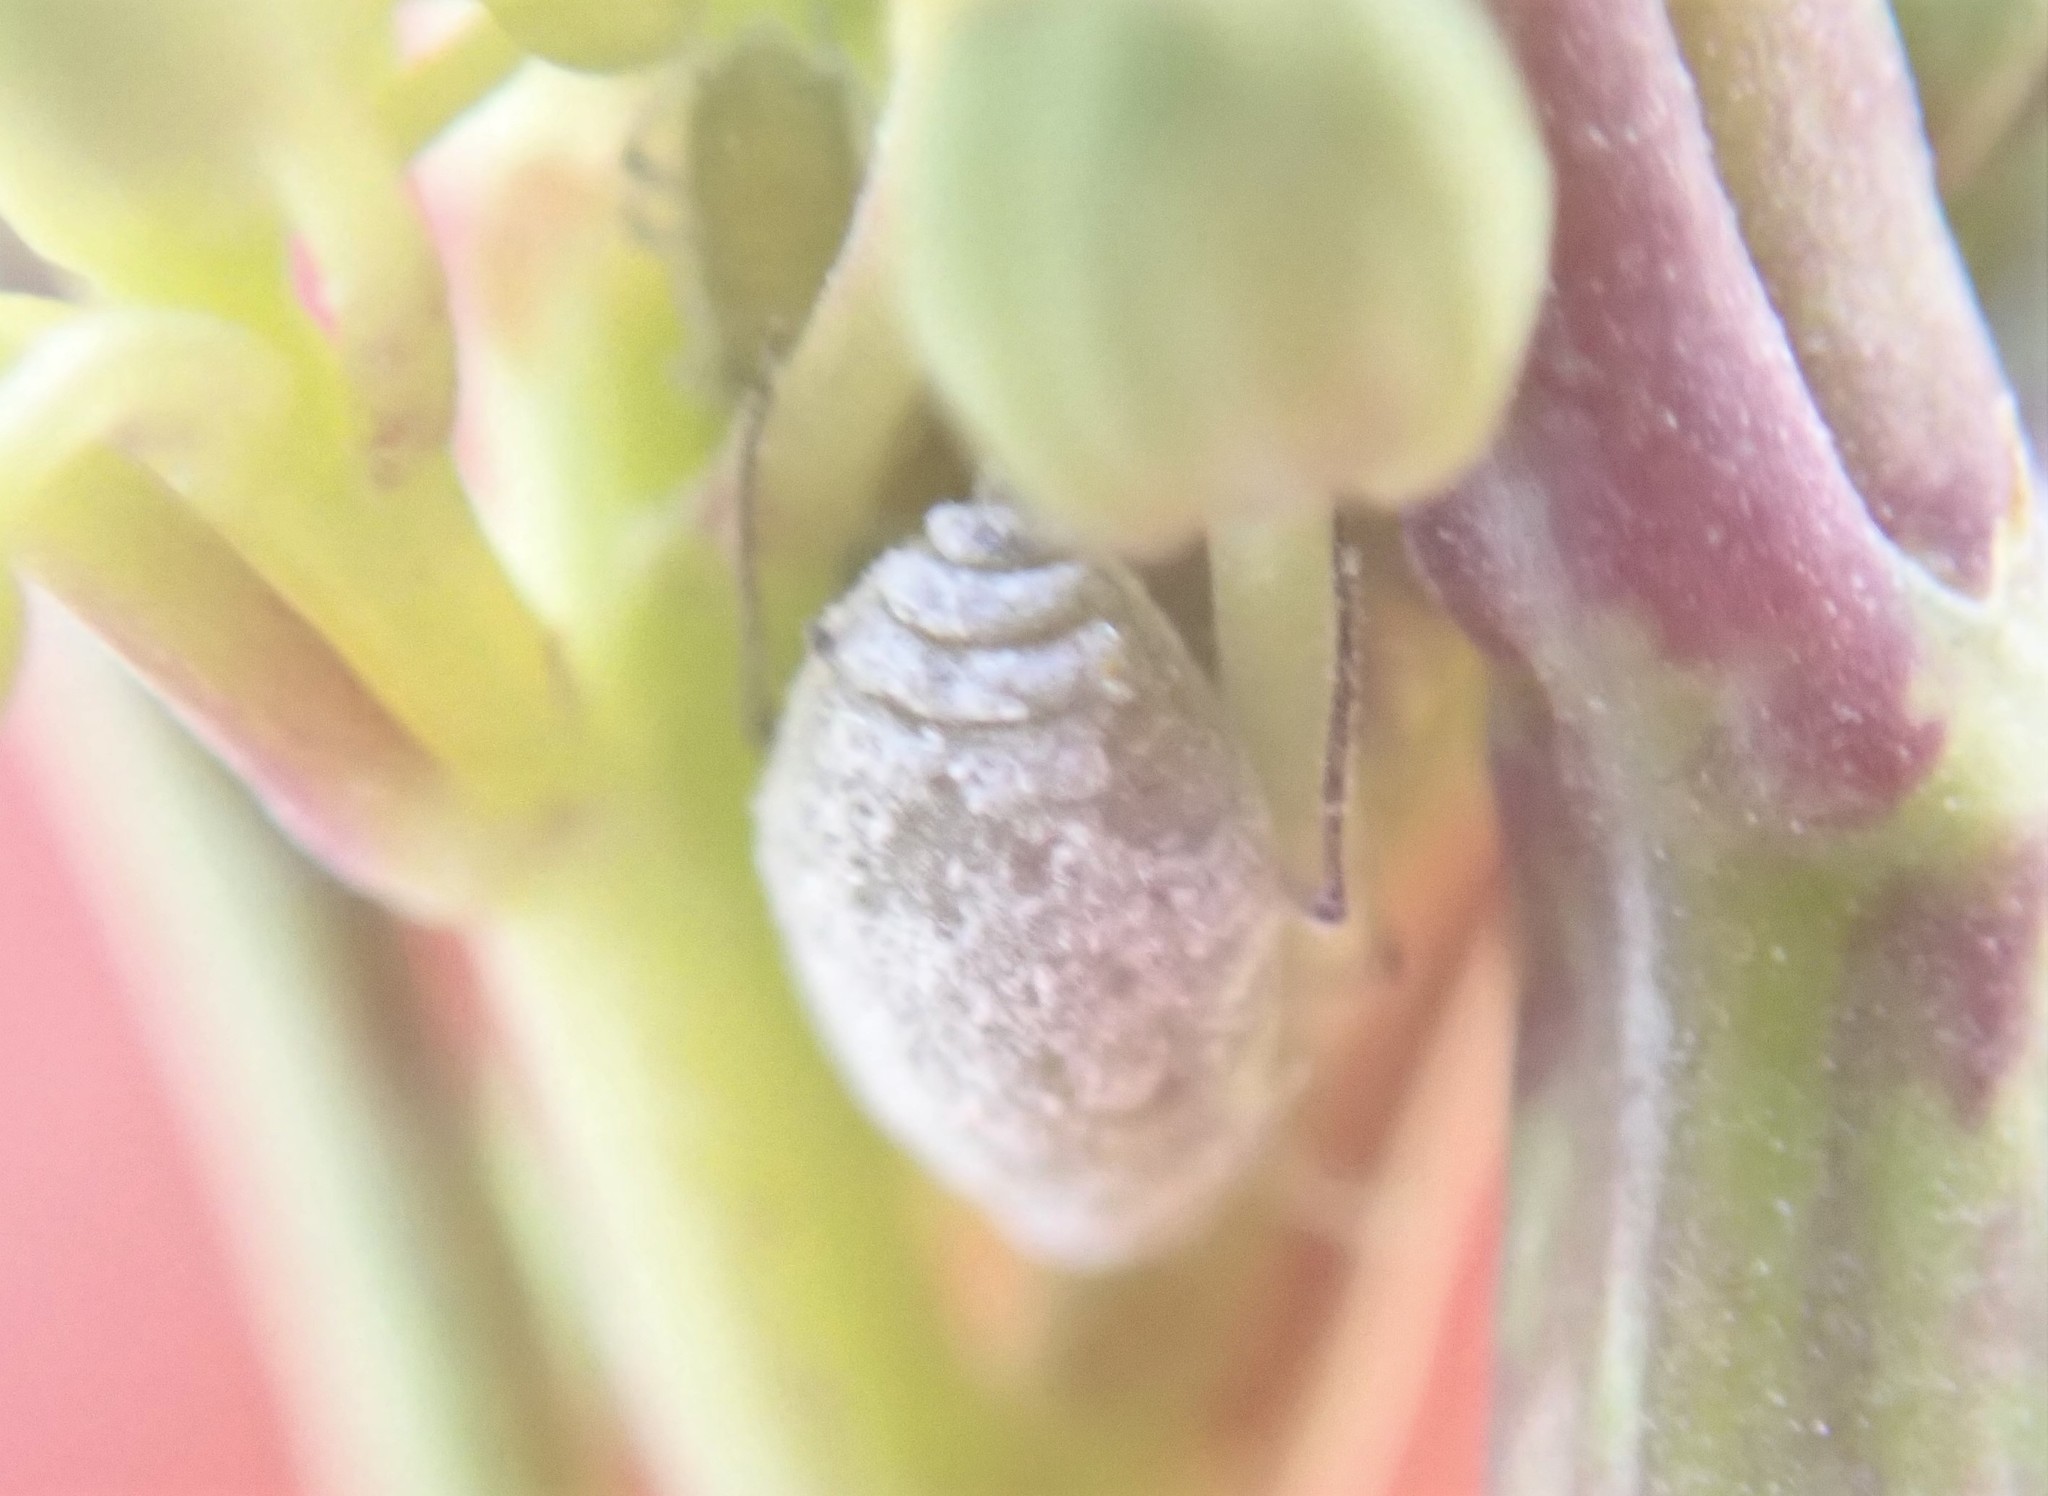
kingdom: Animalia
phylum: Arthropoda
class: Insecta
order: Hemiptera
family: Aphididae
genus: Brevicoryne
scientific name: Brevicoryne brassicae
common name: Cabbage aphid
